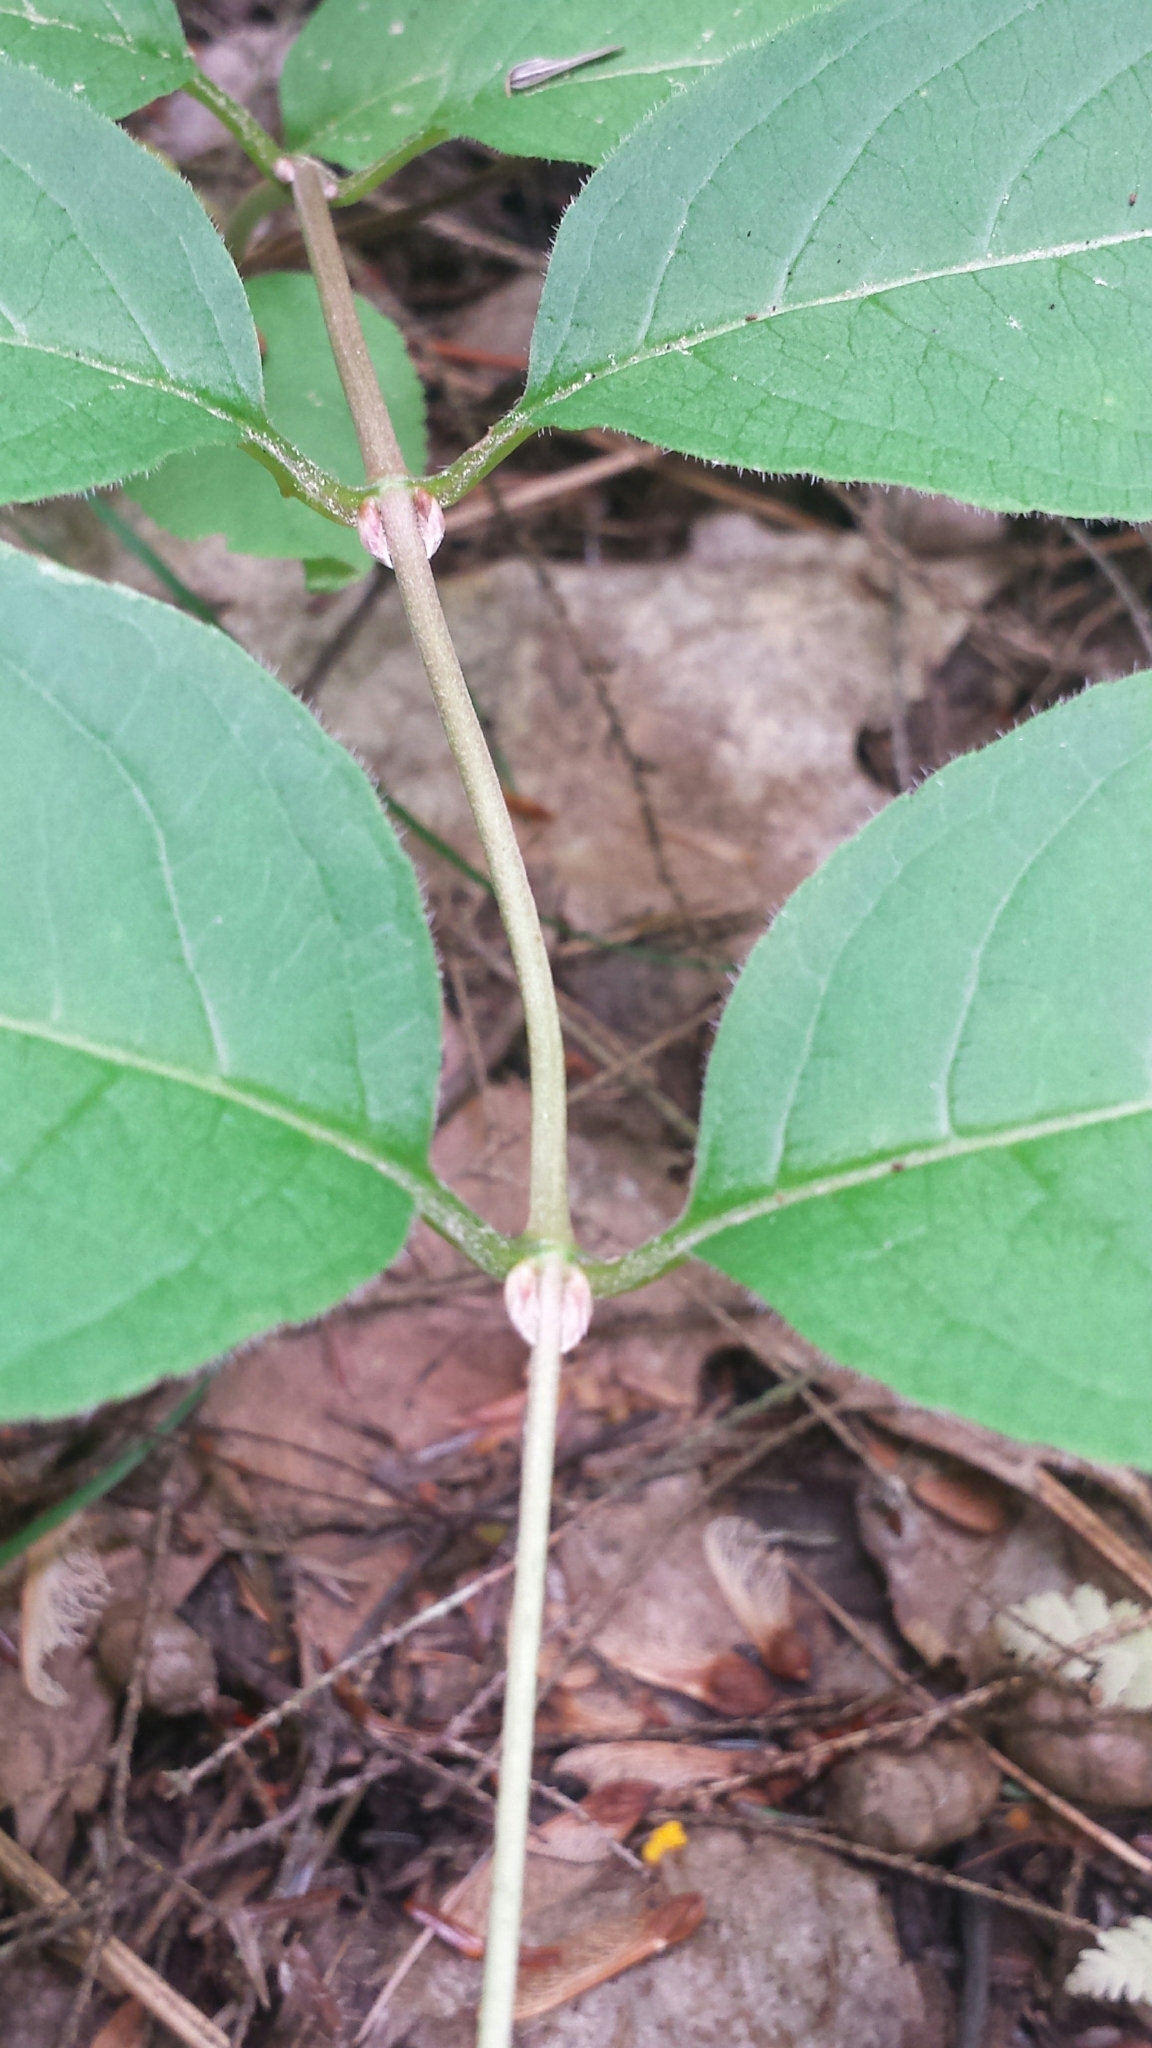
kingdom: Plantae
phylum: Tracheophyta
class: Magnoliopsida
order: Dipsacales
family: Caprifoliaceae
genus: Diervilla
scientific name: Diervilla lonicera
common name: Bush-honeysuckle
